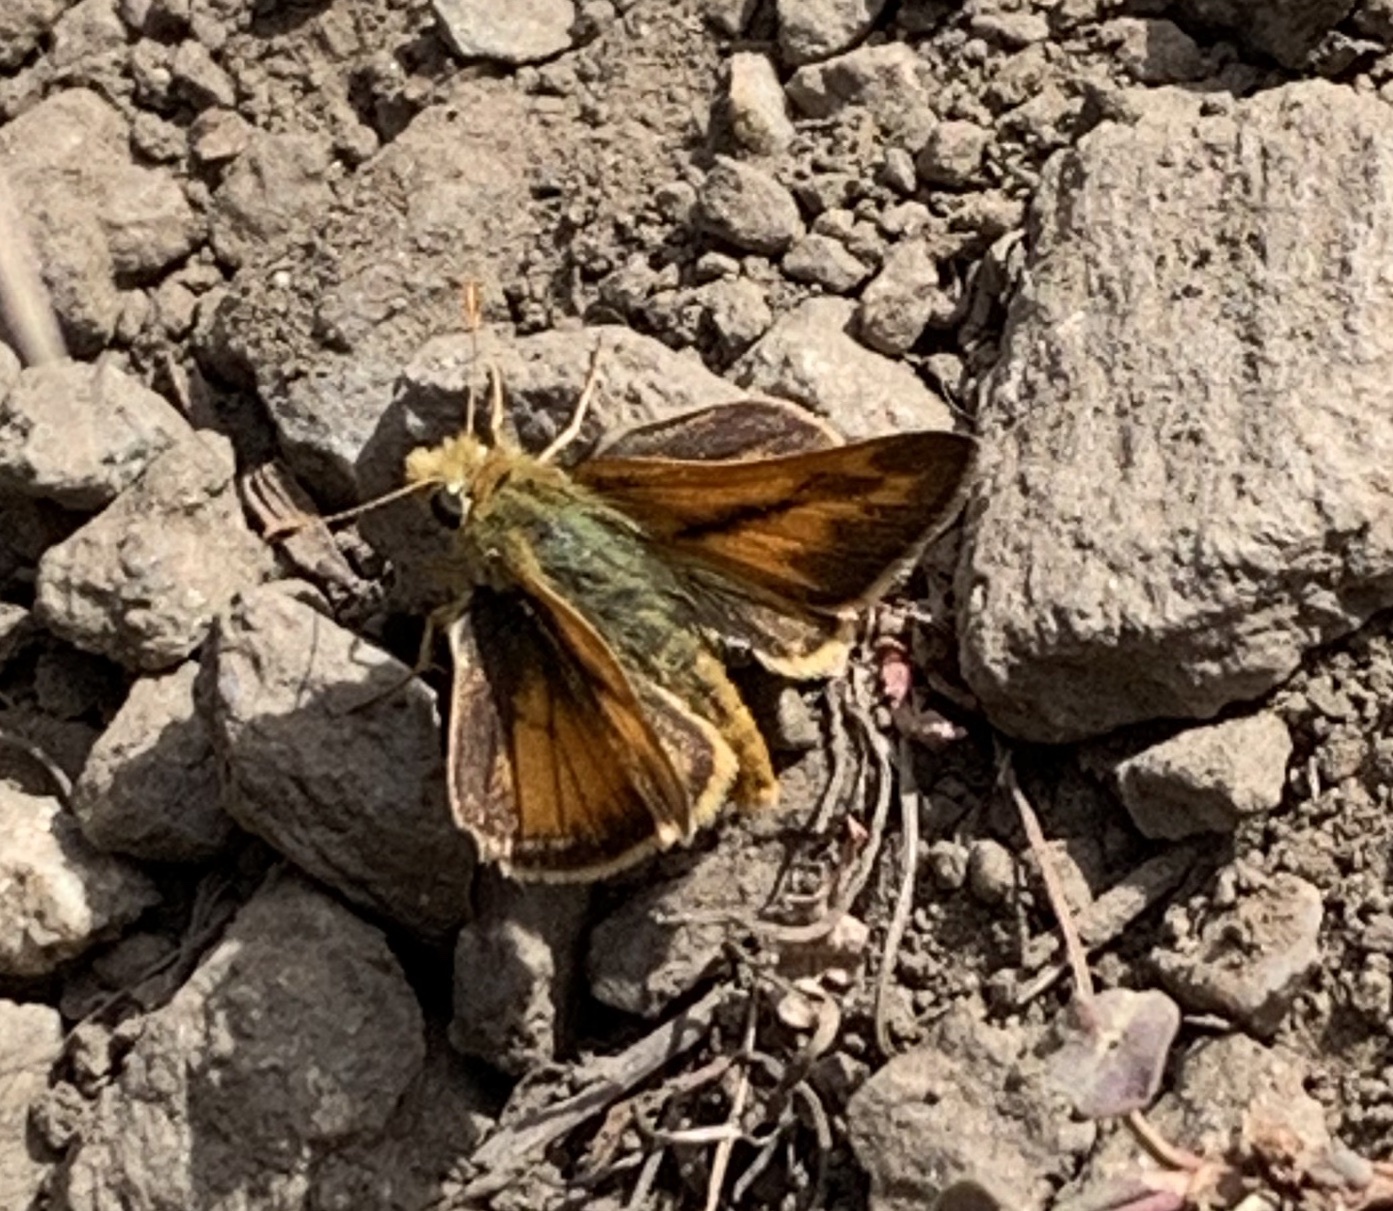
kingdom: Animalia
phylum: Arthropoda
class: Insecta
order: Lepidoptera
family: Hesperiidae
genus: Ochlodes
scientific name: Ochlodes sylvanoides
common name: Woodland skipper
